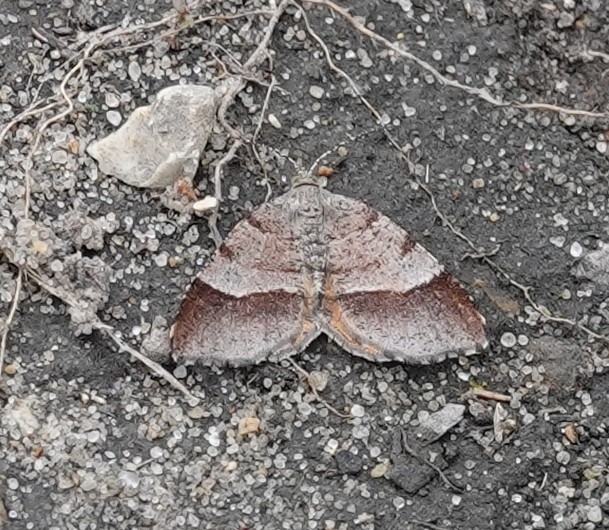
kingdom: Animalia
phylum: Arthropoda
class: Insecta
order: Lepidoptera
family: Geometridae
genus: Mellilla
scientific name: Mellilla xanthometata
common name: Orange wing moth
